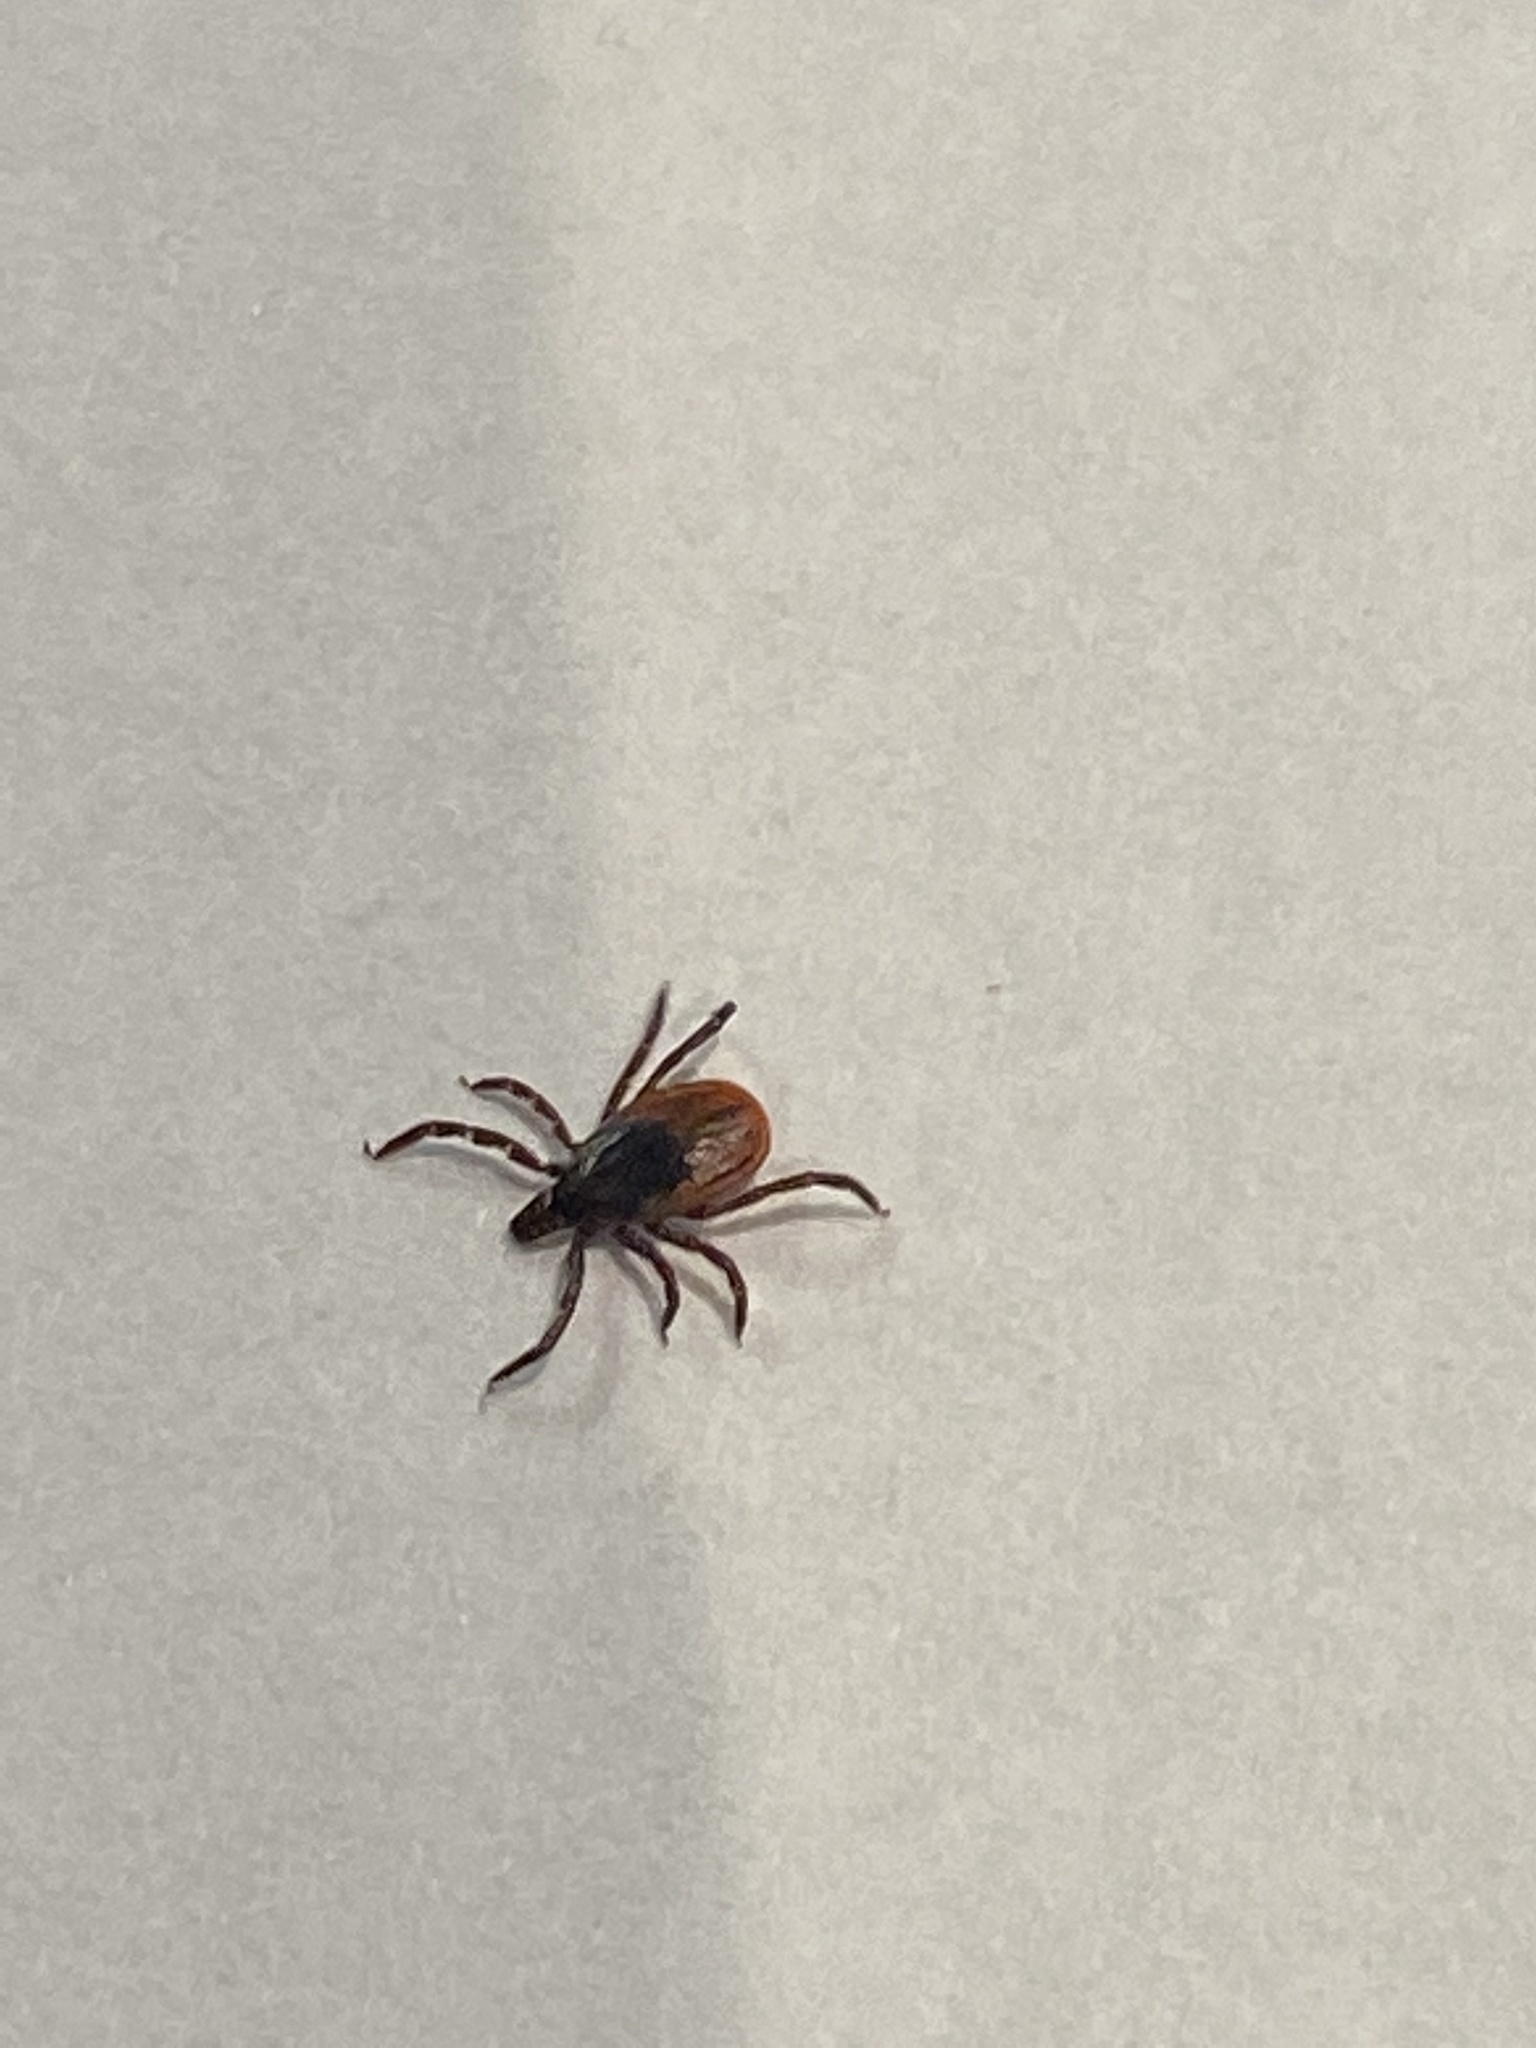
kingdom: Animalia
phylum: Arthropoda
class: Arachnida
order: Ixodida
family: Ixodidae
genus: Ixodes
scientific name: Ixodes scapularis
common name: Black legged tick
